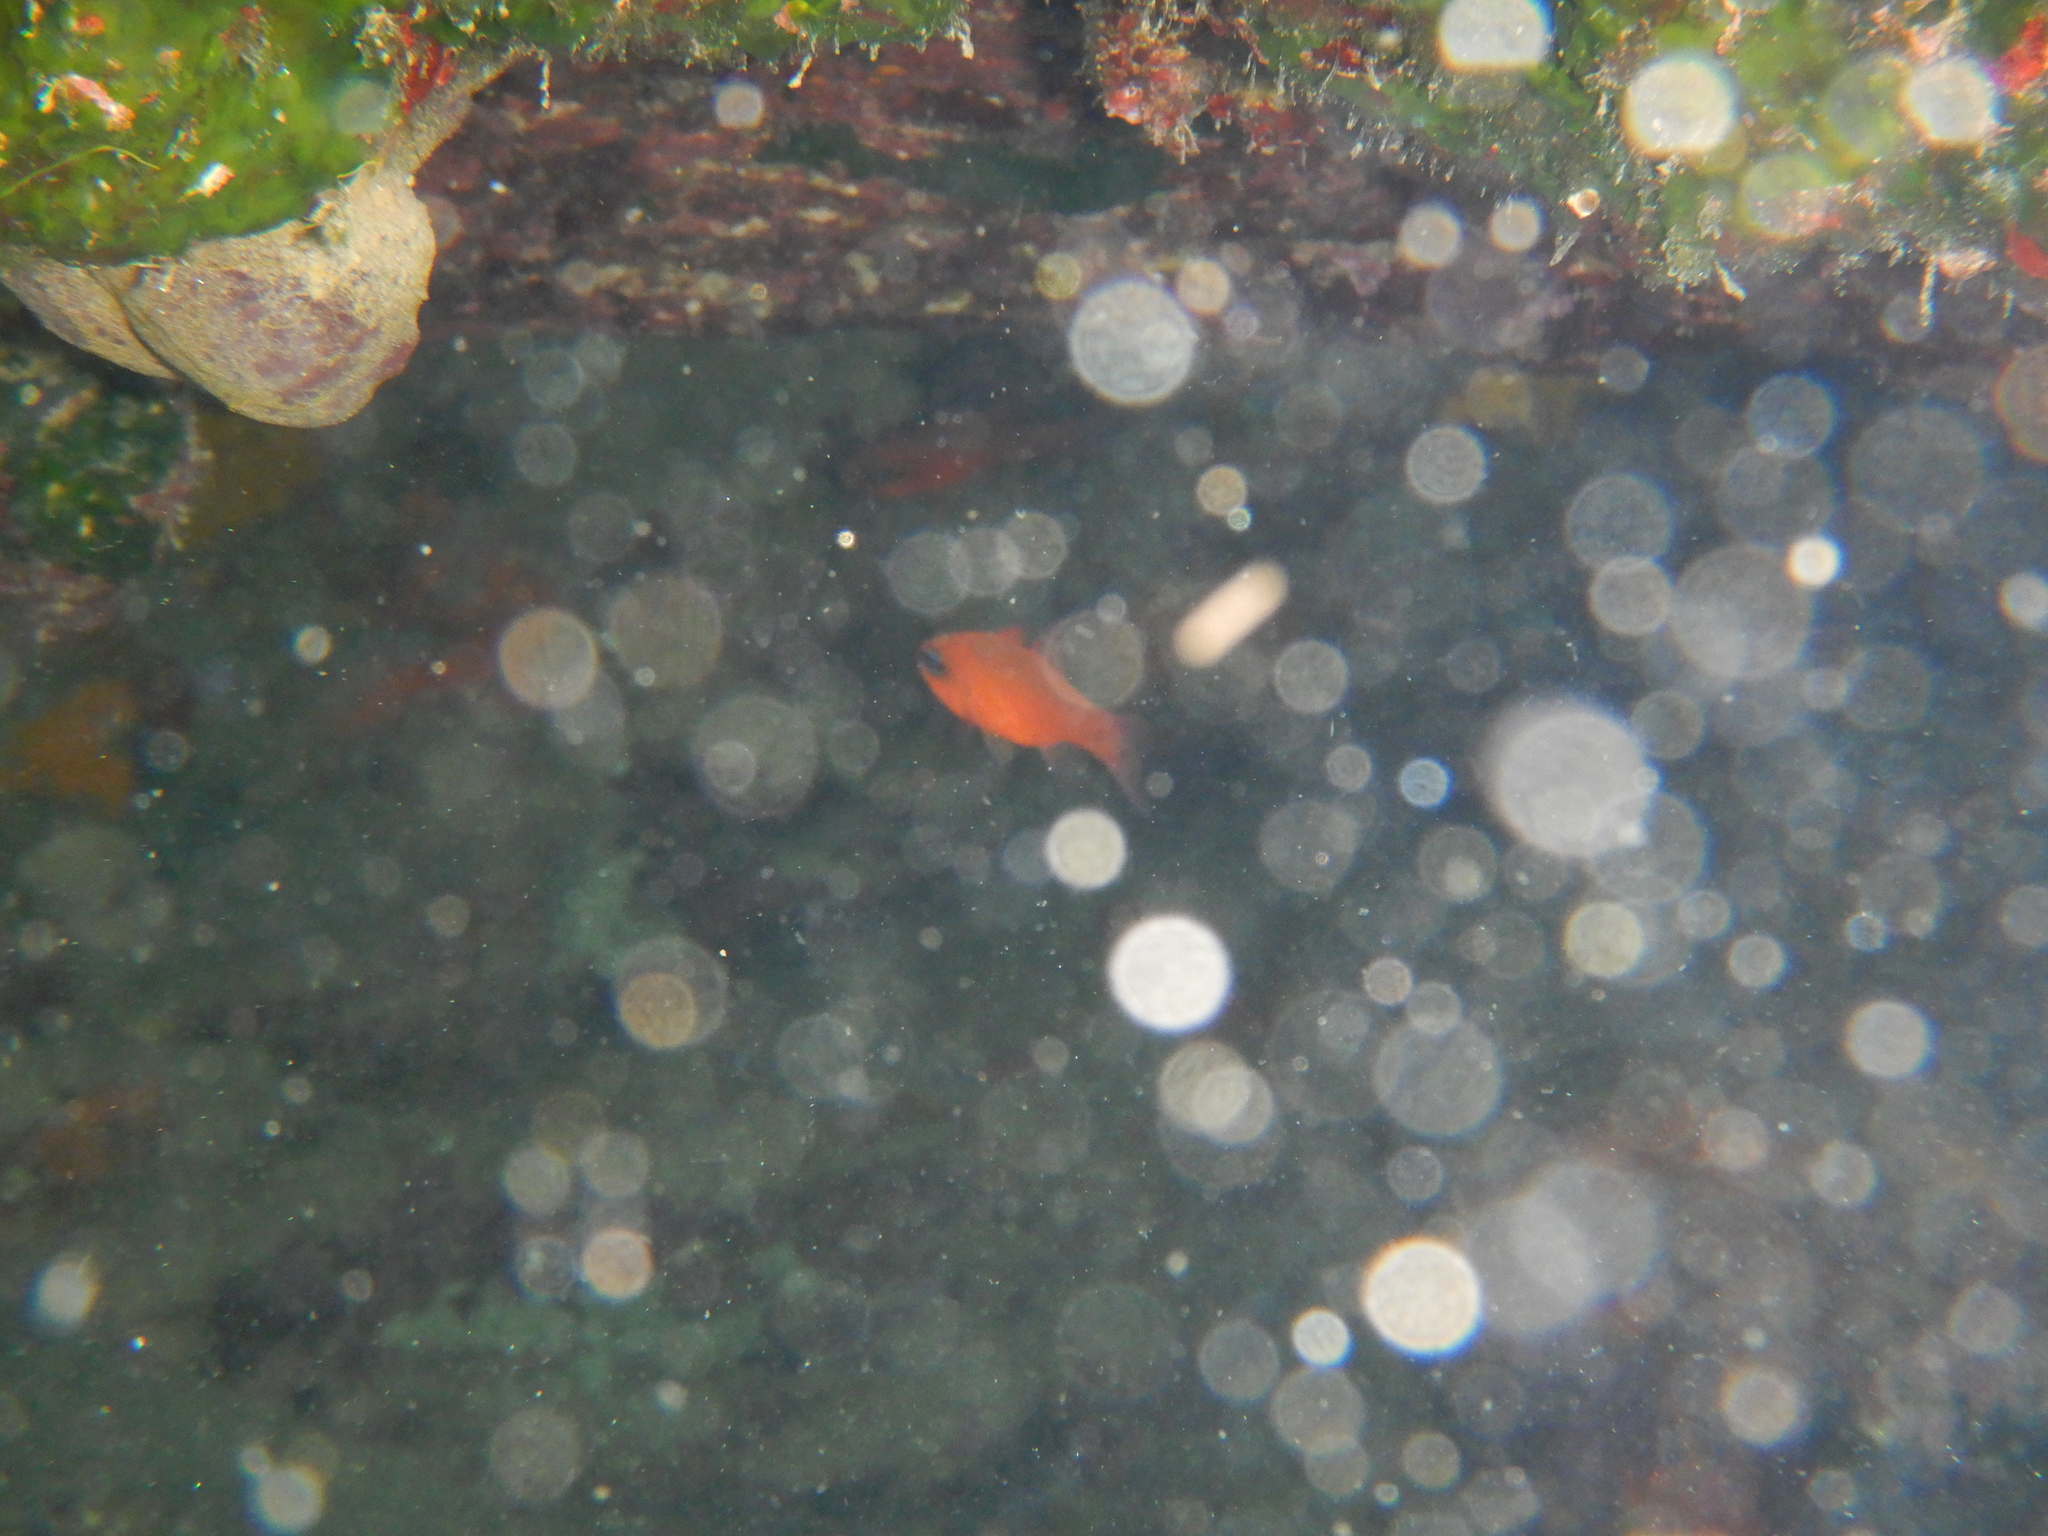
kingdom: Animalia
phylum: Chordata
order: Perciformes
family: Apogonidae
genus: Apogon
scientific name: Apogon imberbis
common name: Cardinal fish
